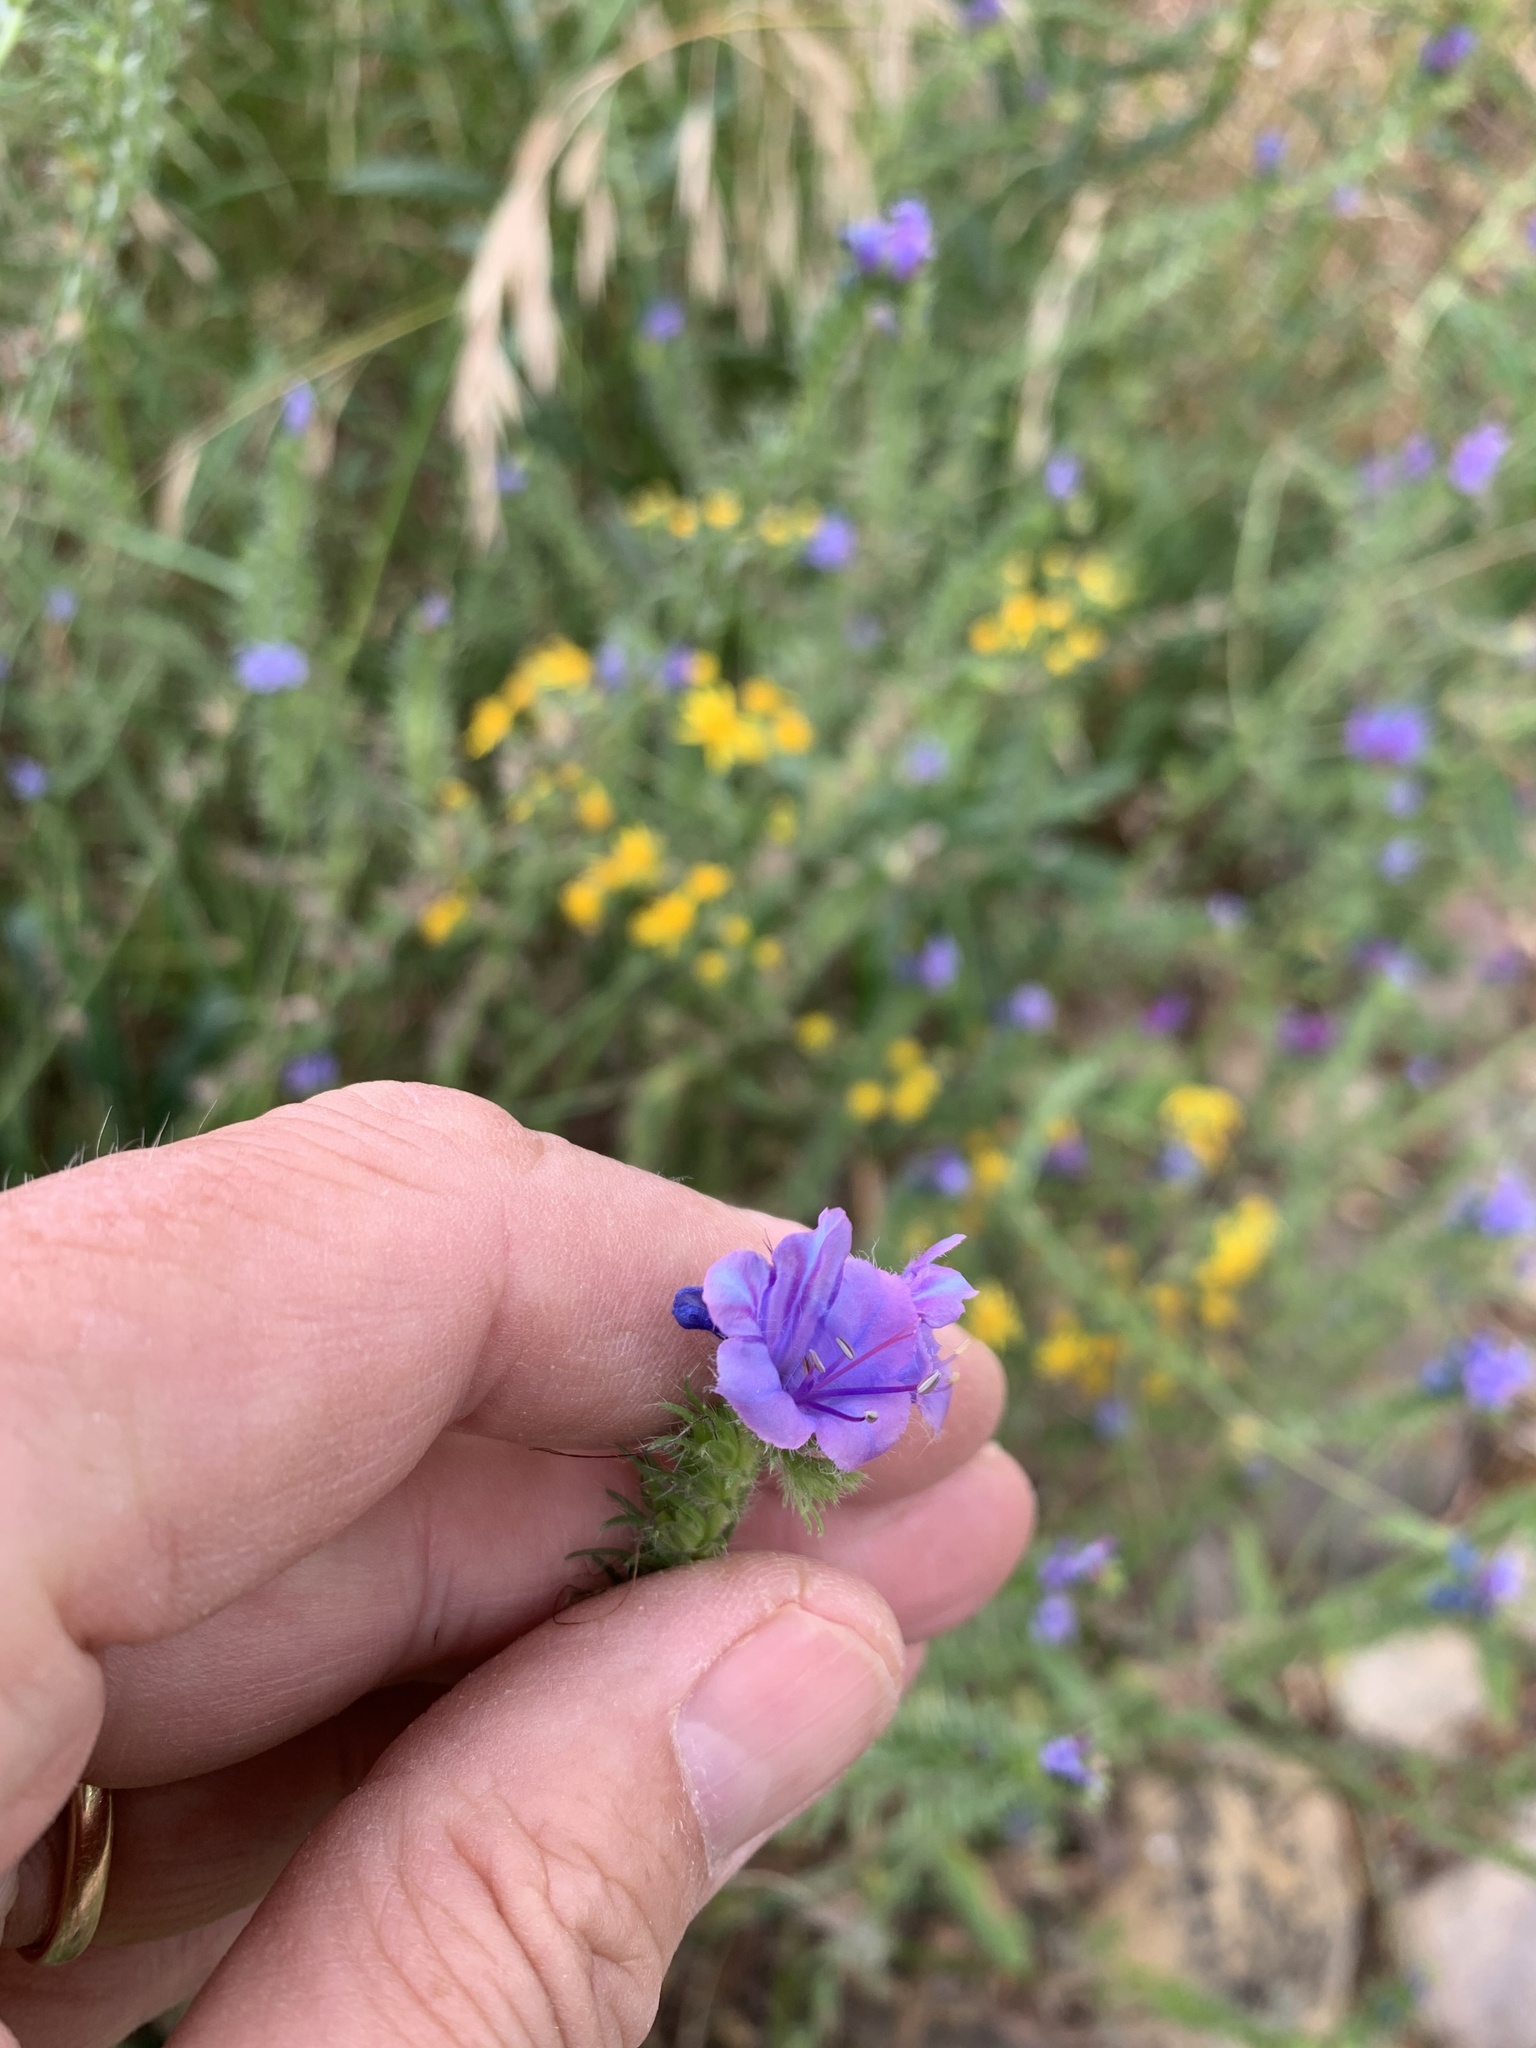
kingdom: Plantae
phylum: Tracheophyta
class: Magnoliopsida
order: Boraginales
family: Boraginaceae
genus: Echium
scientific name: Echium plantagineum
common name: Purple viper's-bugloss
